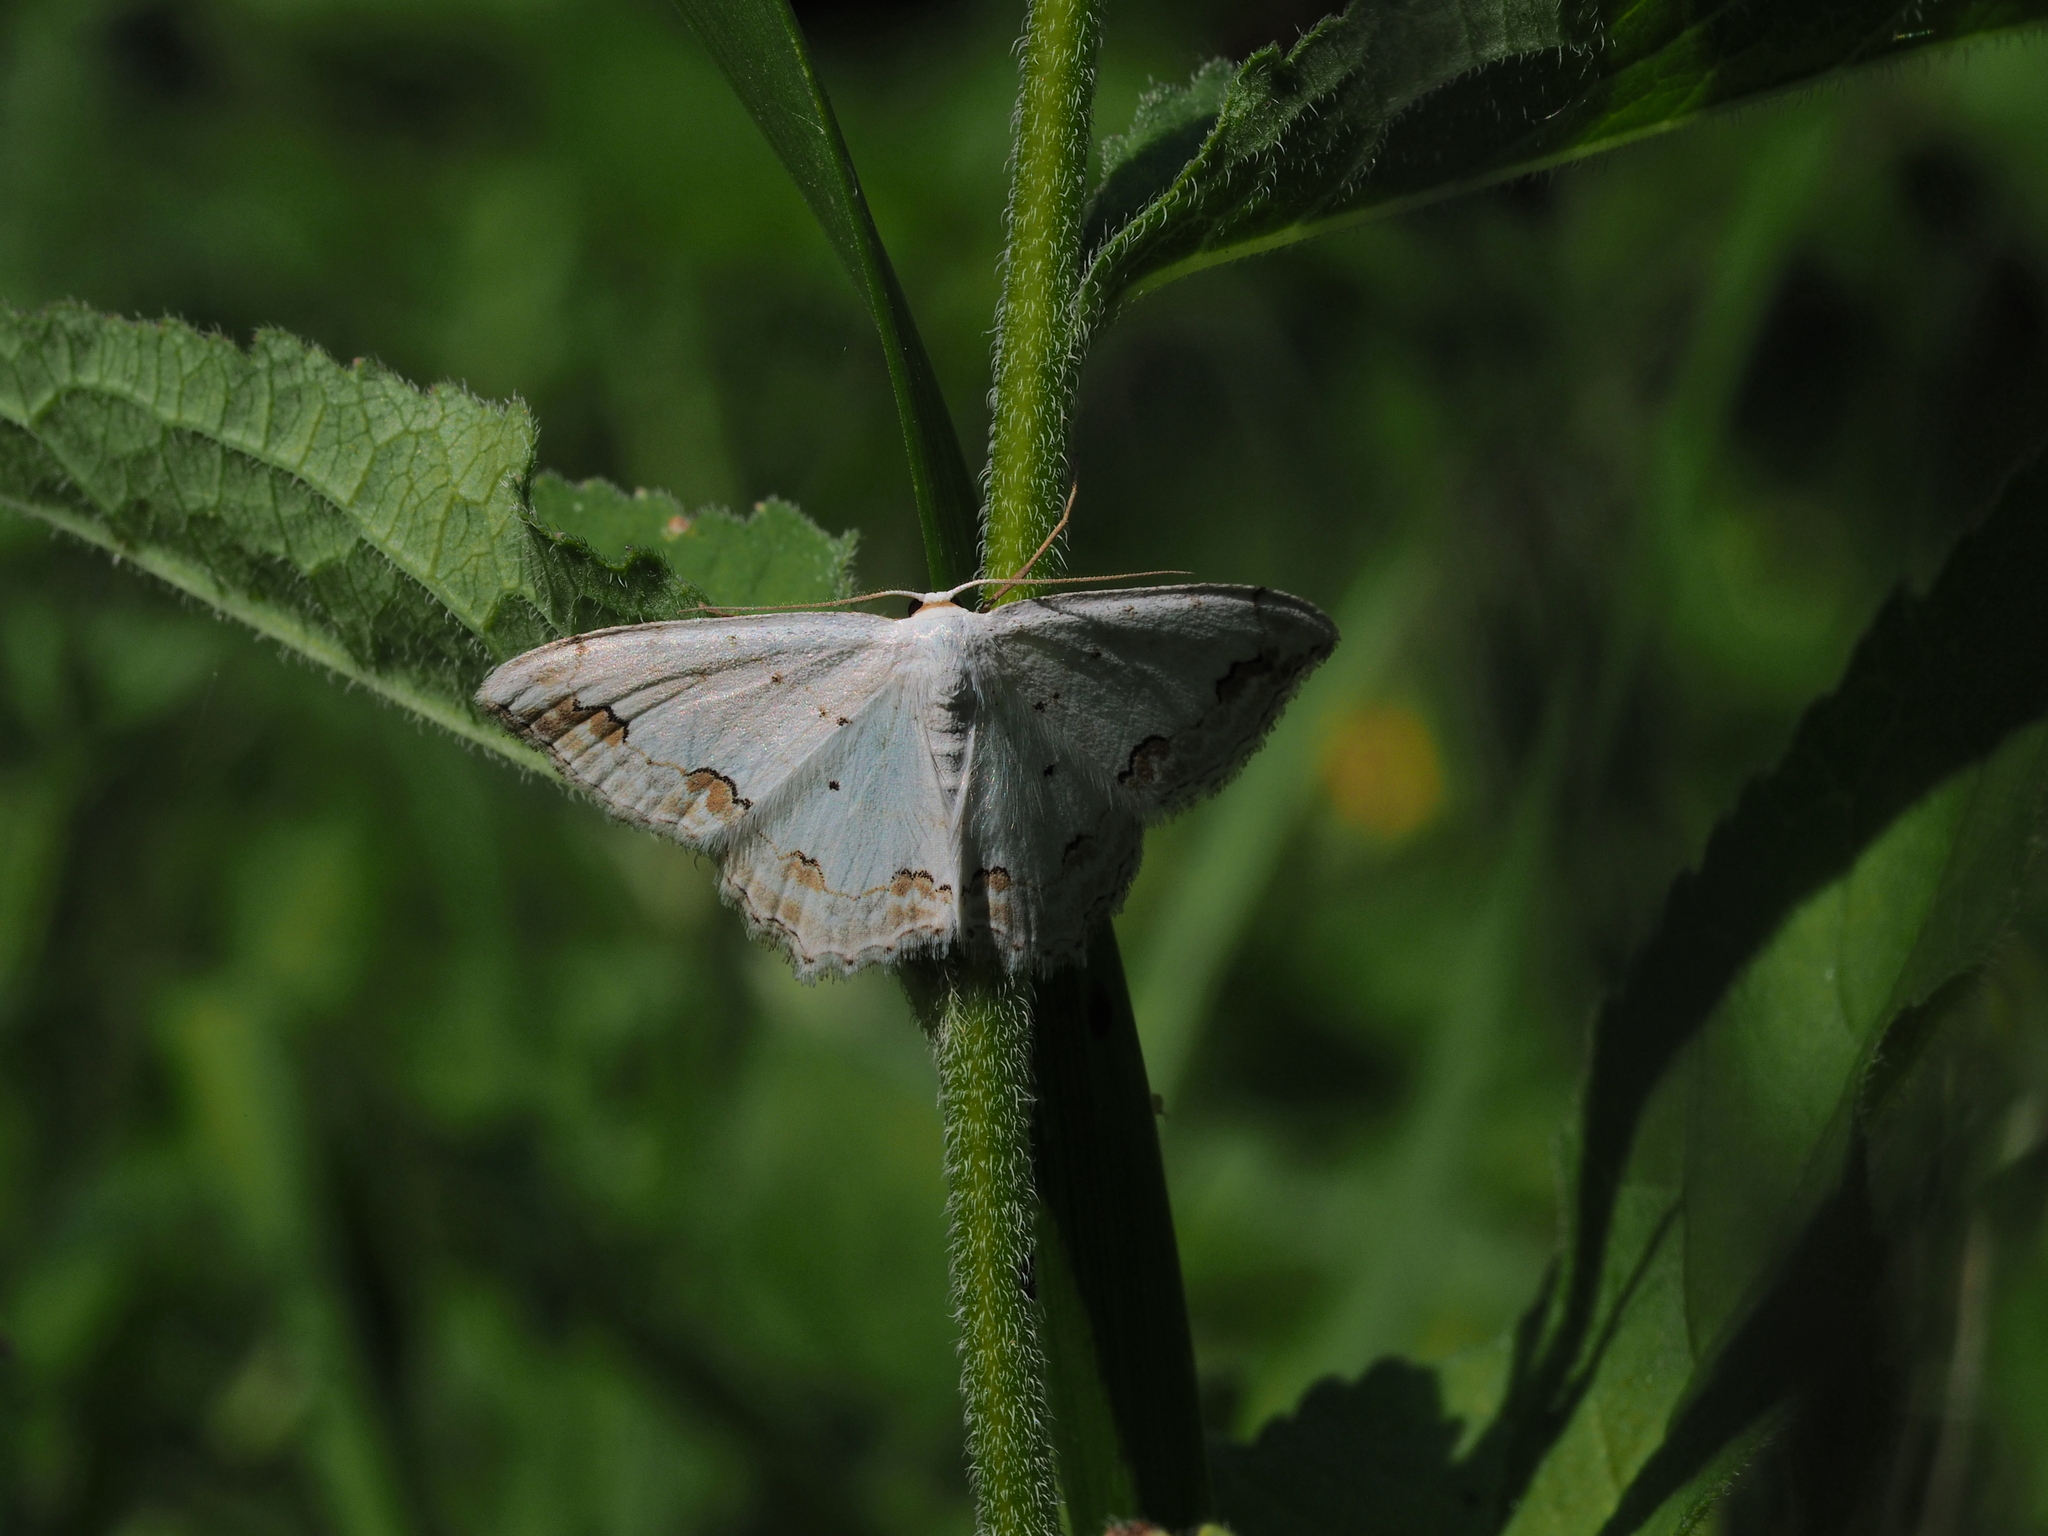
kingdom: Animalia
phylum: Arthropoda
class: Insecta
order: Lepidoptera
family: Geometridae
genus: Scopula
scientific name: Scopula ornata
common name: Lace border
